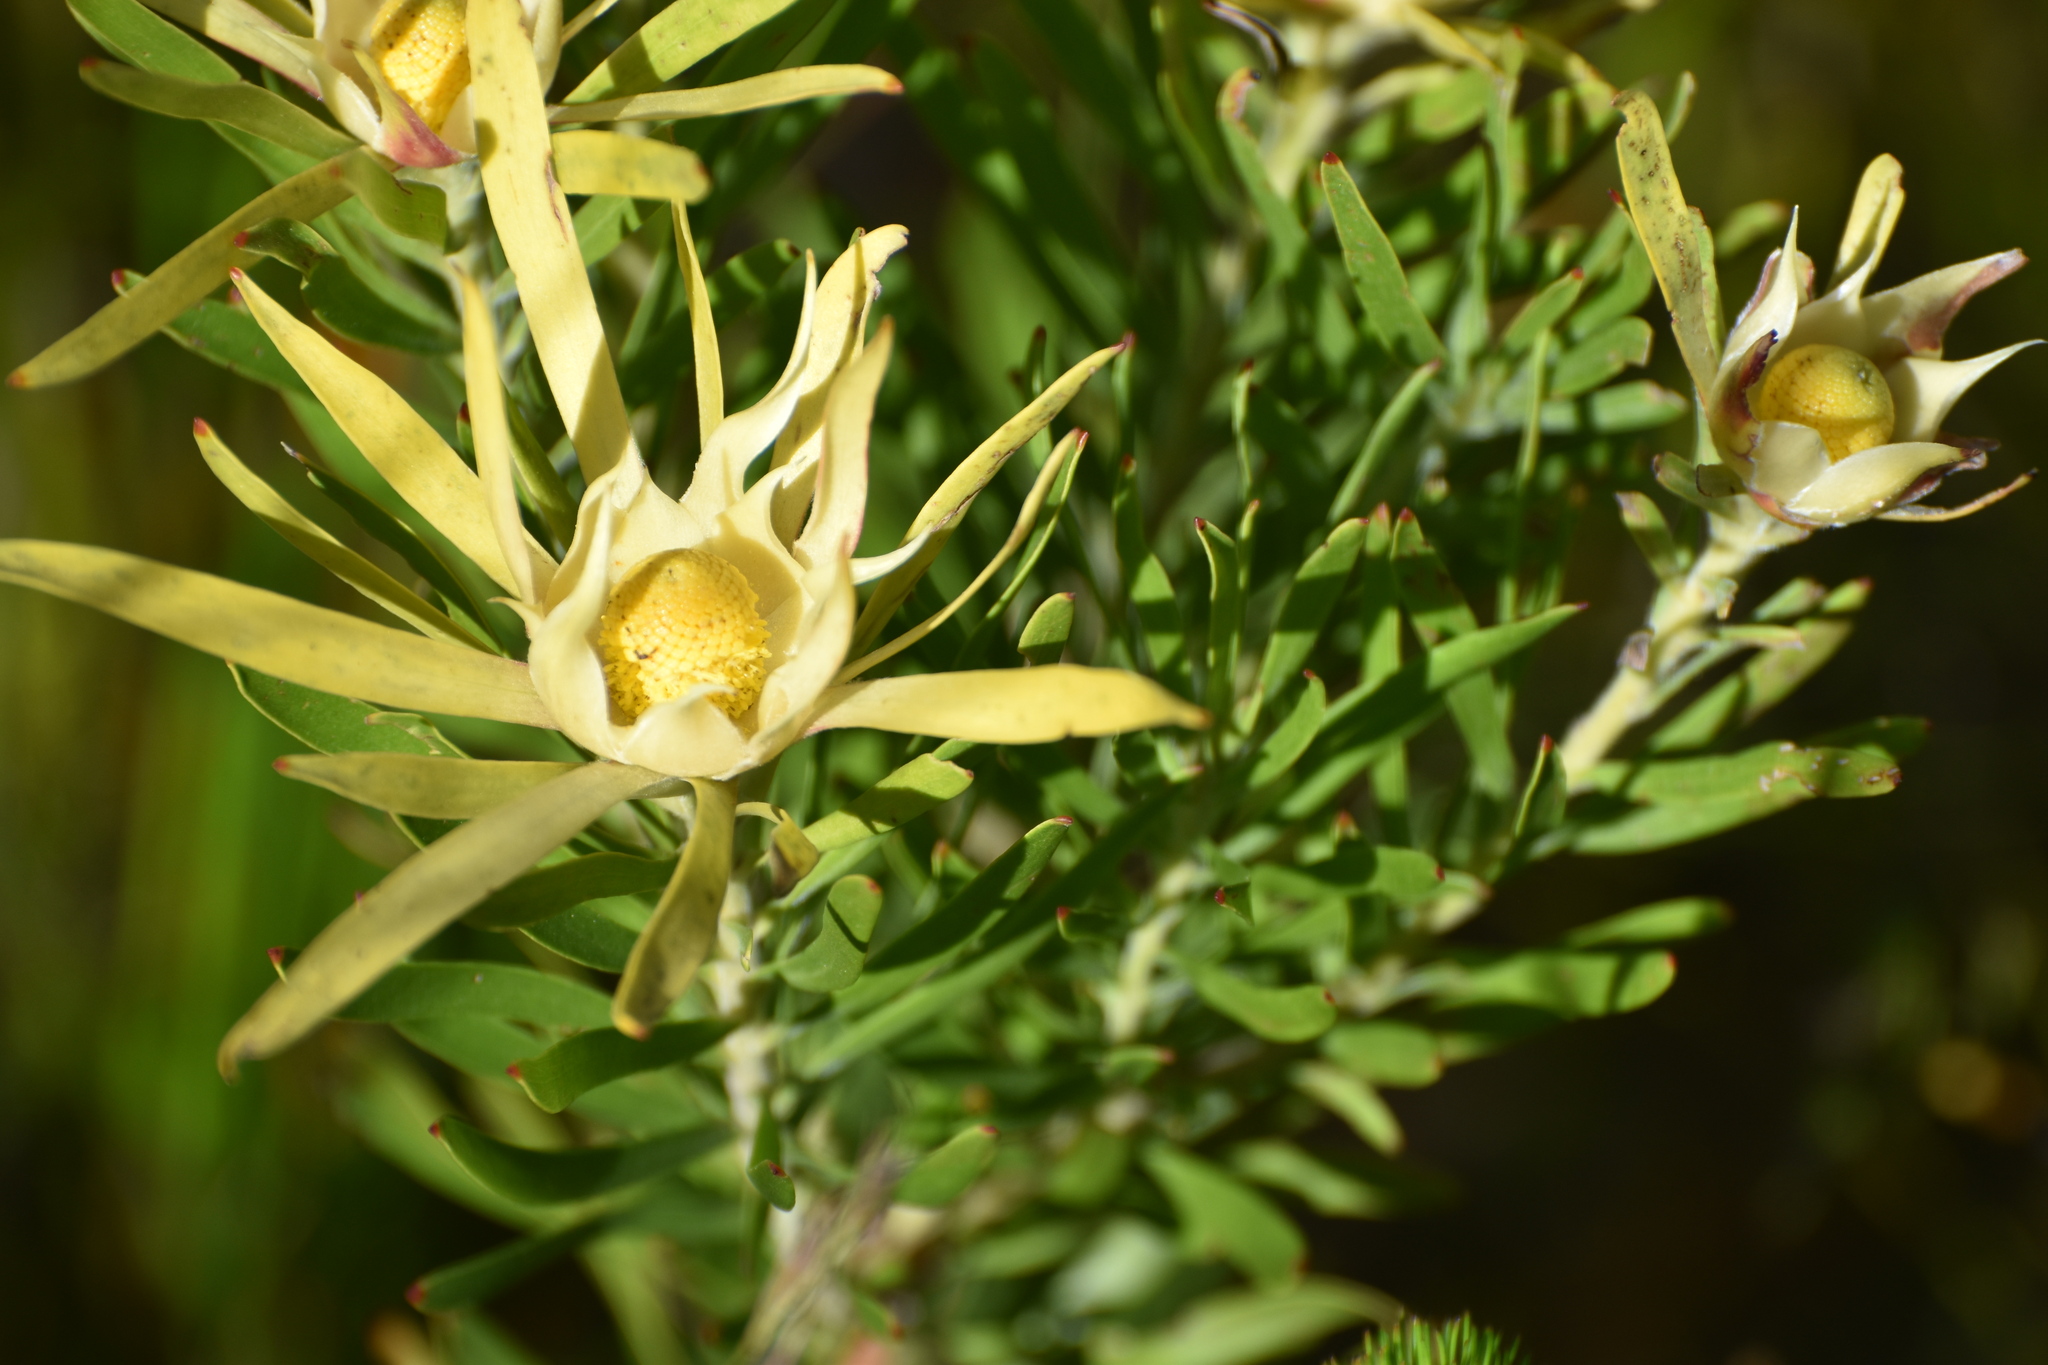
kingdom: Plantae
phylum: Tracheophyta
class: Magnoliopsida
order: Proteales
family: Proteaceae
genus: Leucadendron
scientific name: Leucadendron eucalyptifolium
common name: Gum-leaved conebush
